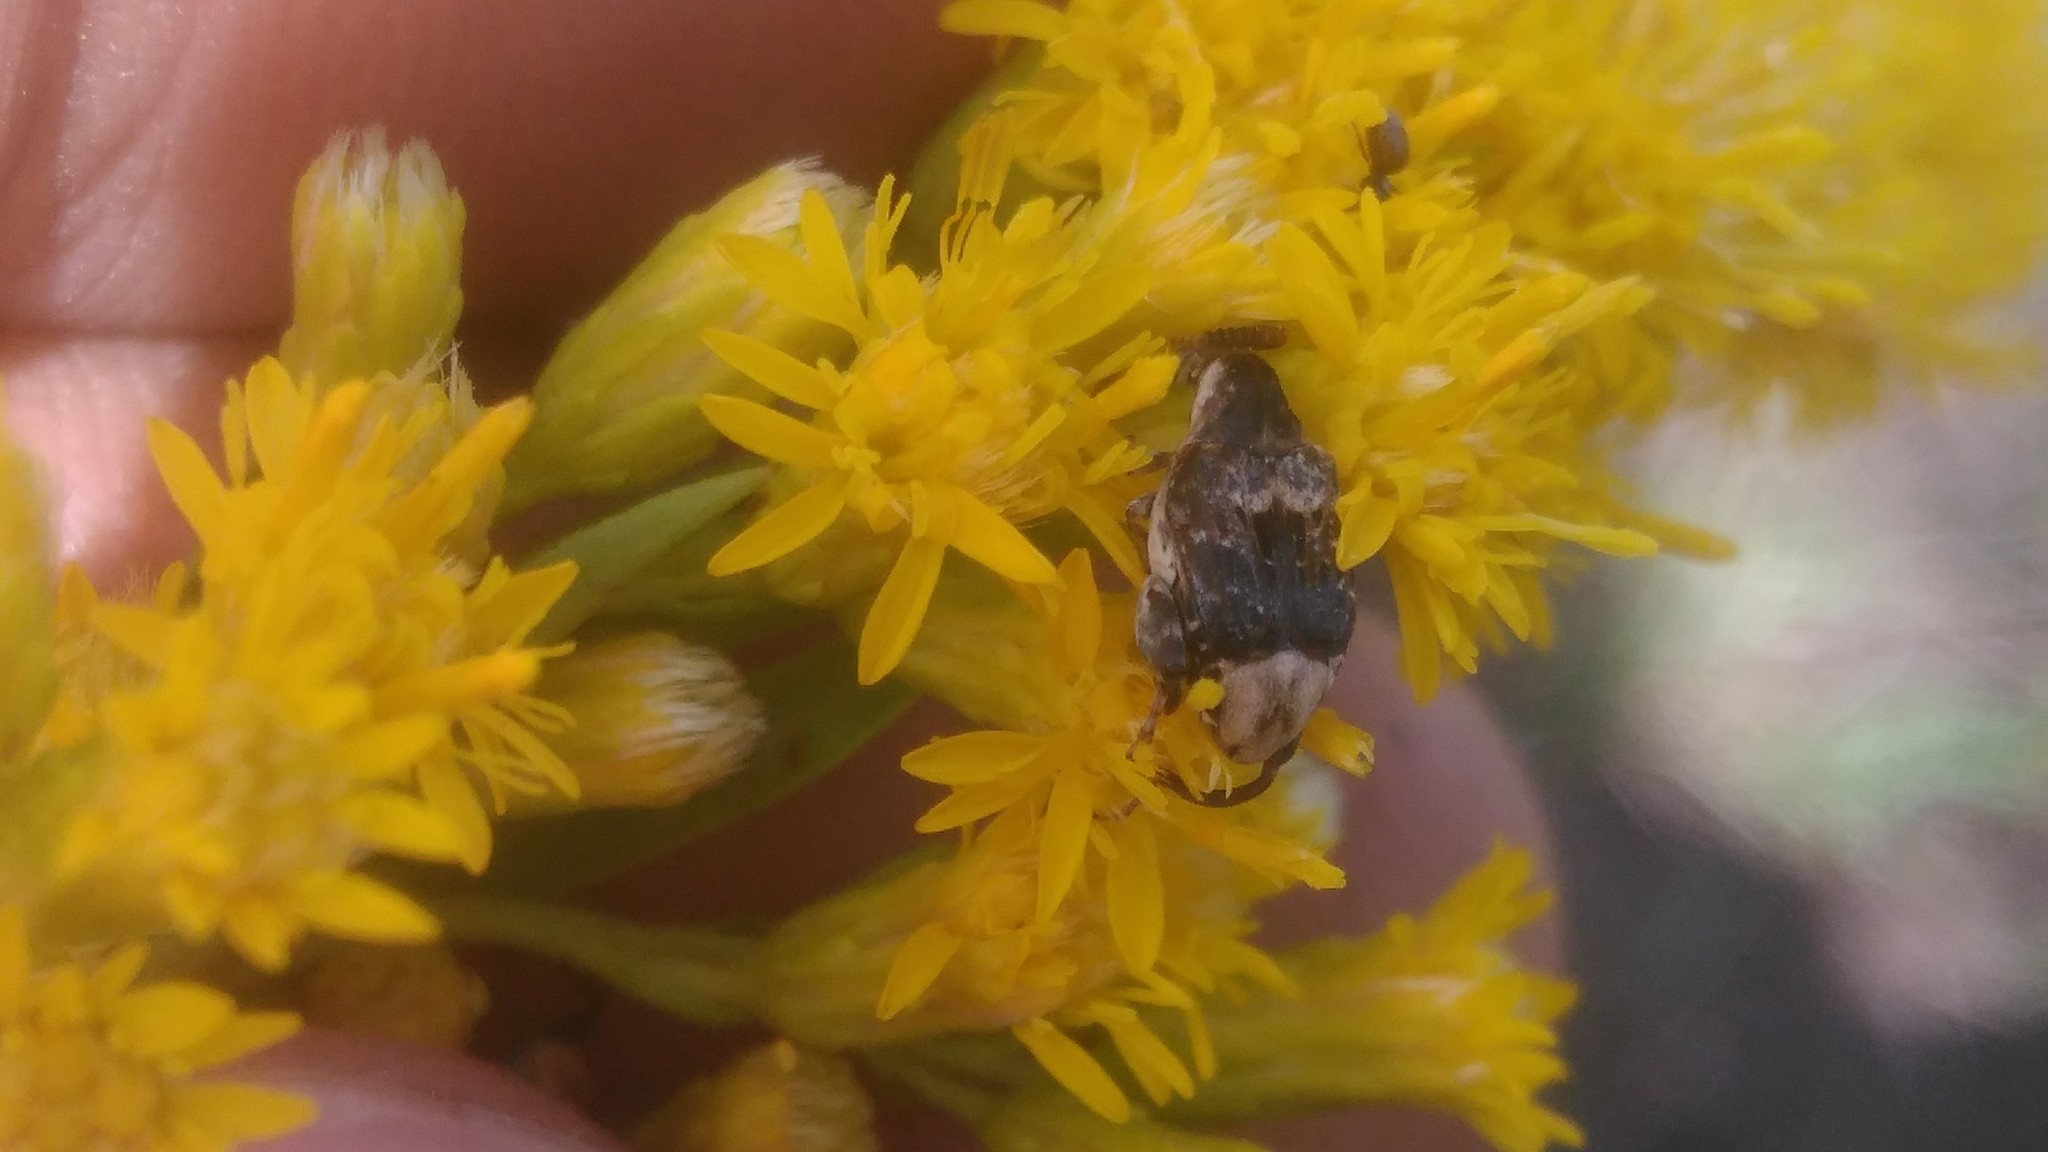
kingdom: Animalia
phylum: Arthropoda
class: Insecta
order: Coleoptera
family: Chrysomelidae
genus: Penthobruchus
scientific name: Penthobruchus
